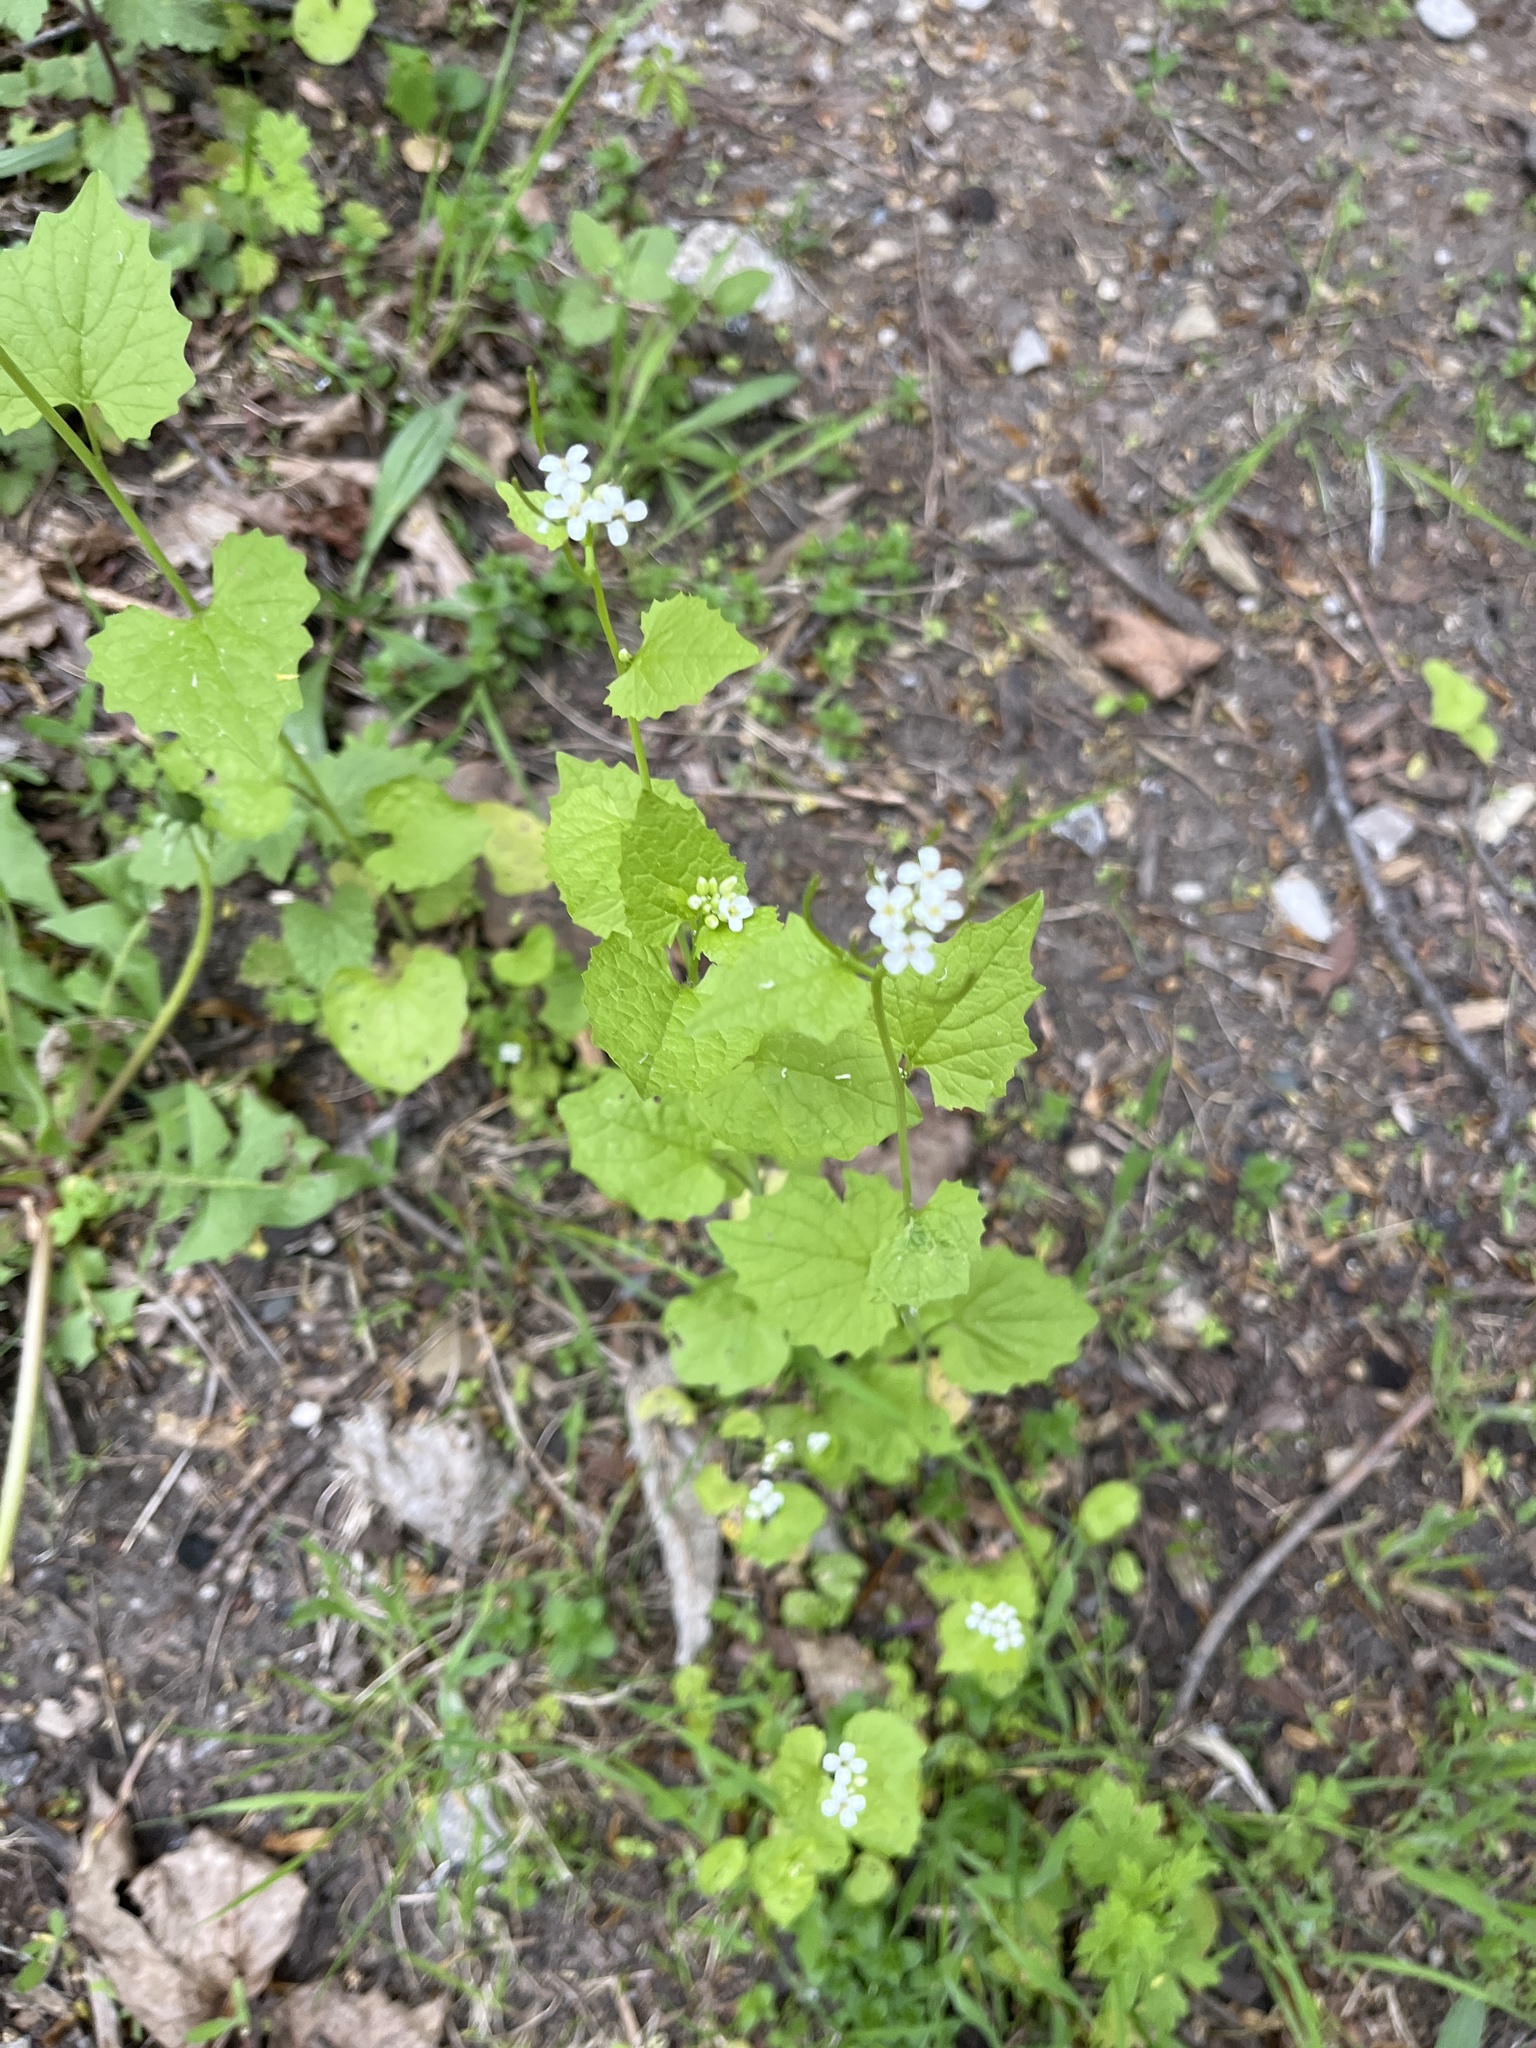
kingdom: Plantae
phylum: Tracheophyta
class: Magnoliopsida
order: Brassicales
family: Brassicaceae
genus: Alliaria
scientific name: Alliaria petiolata
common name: Garlic mustard
